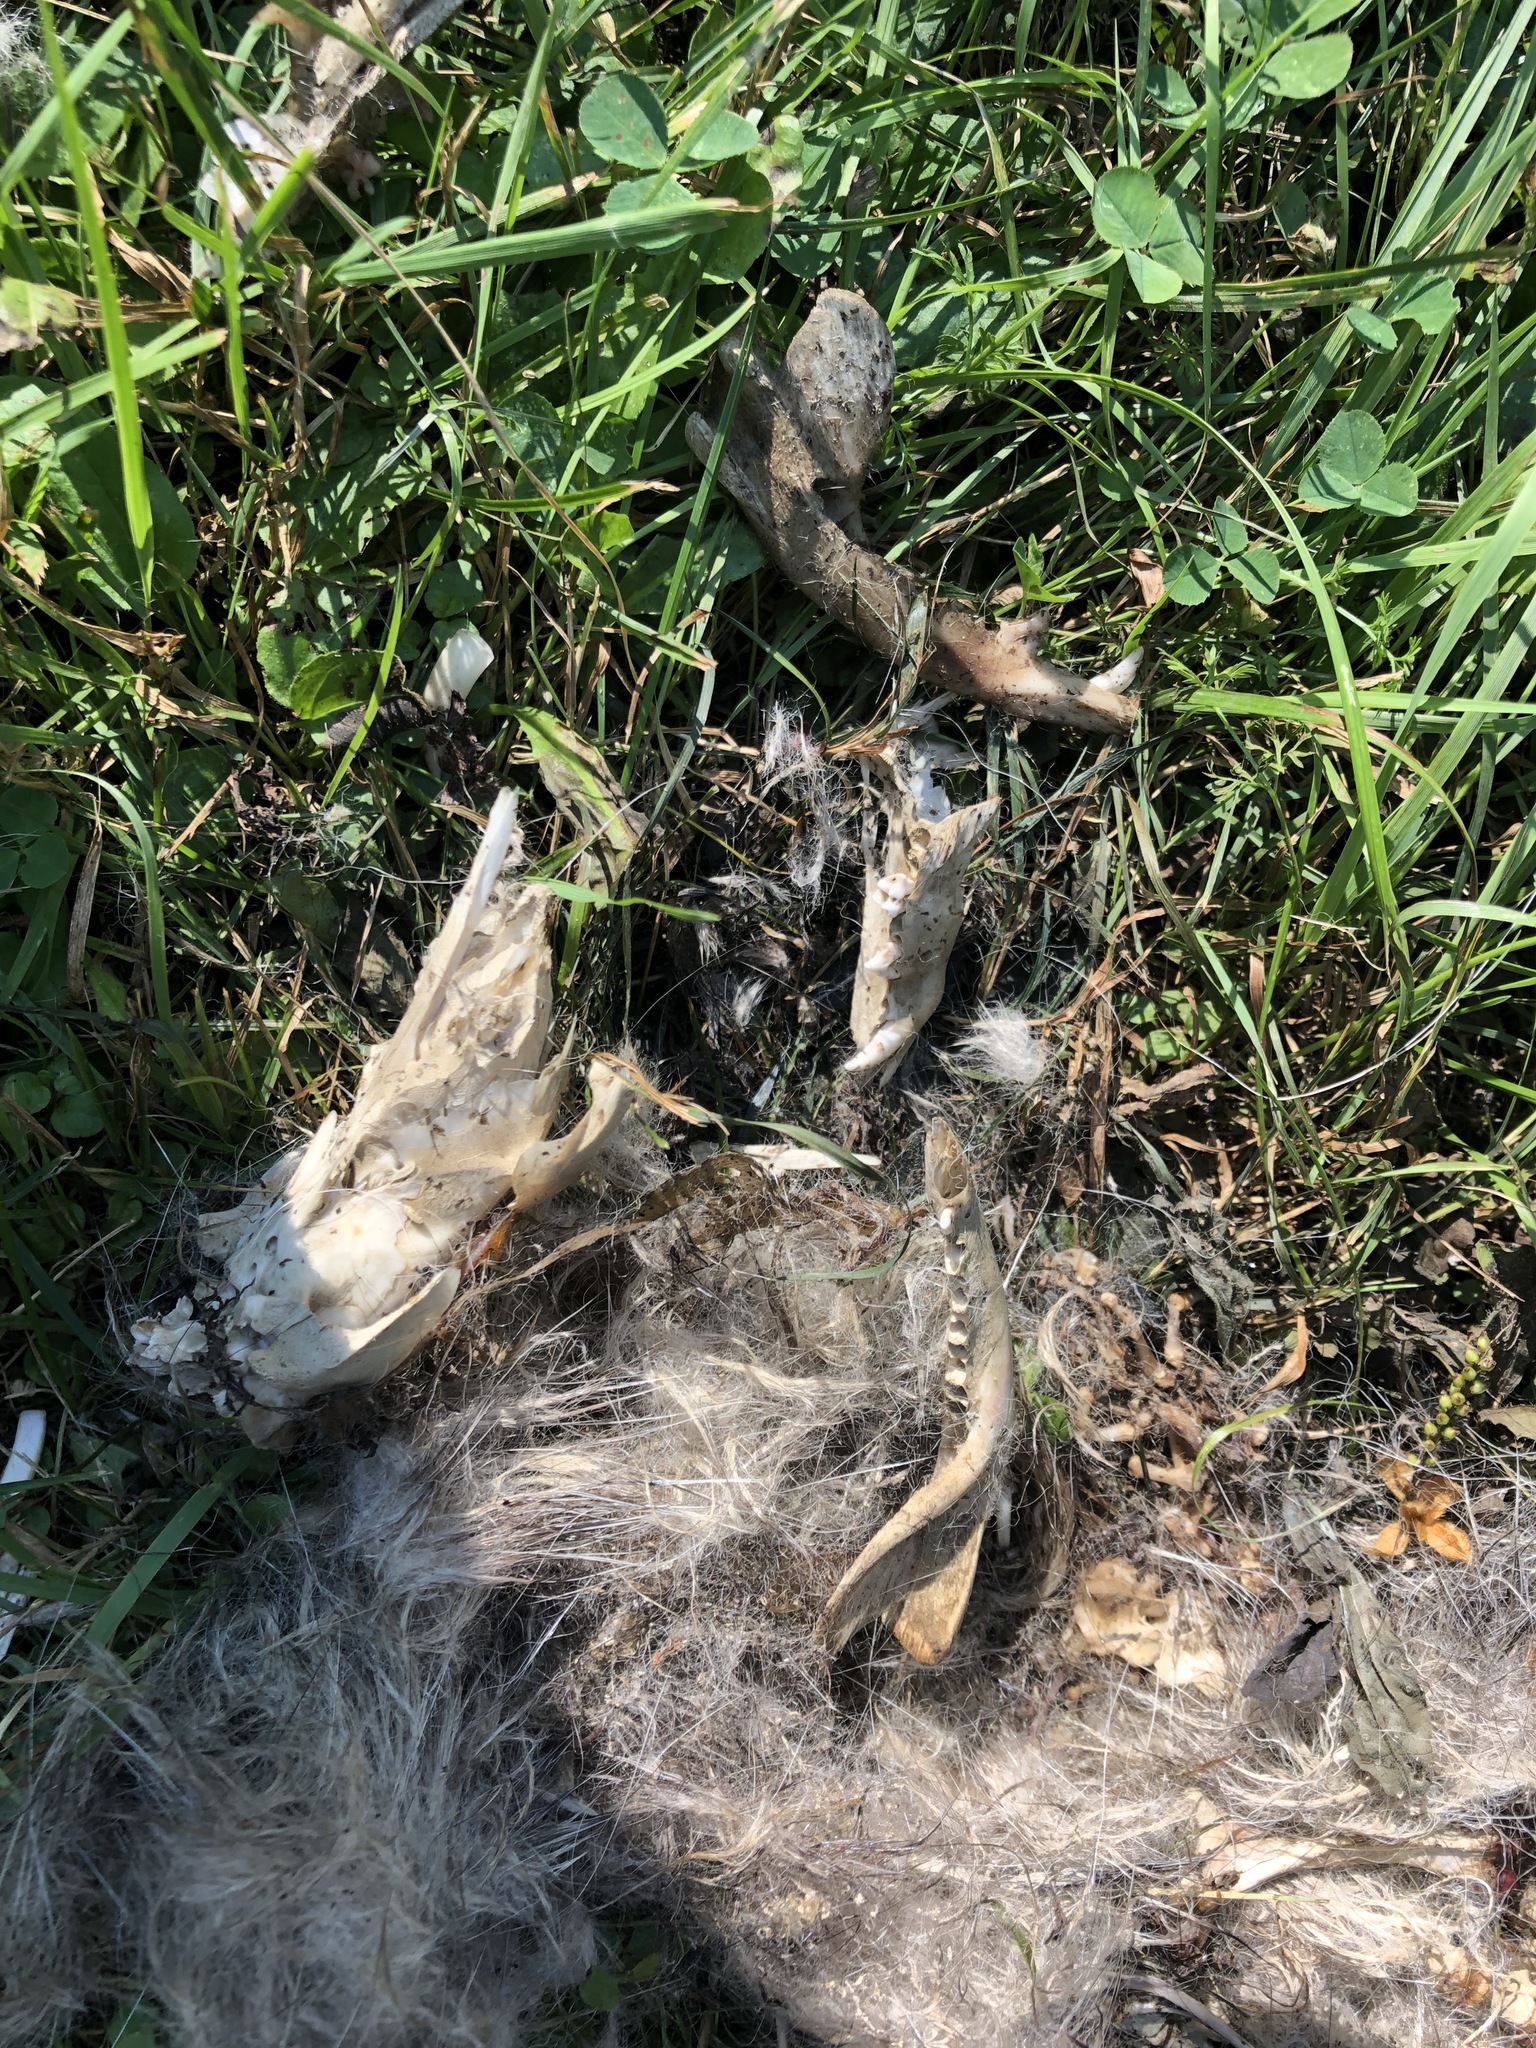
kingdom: Animalia
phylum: Chordata
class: Mammalia
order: Didelphimorphia
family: Didelphidae
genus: Didelphis
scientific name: Didelphis virginiana
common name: Virginia opossum
